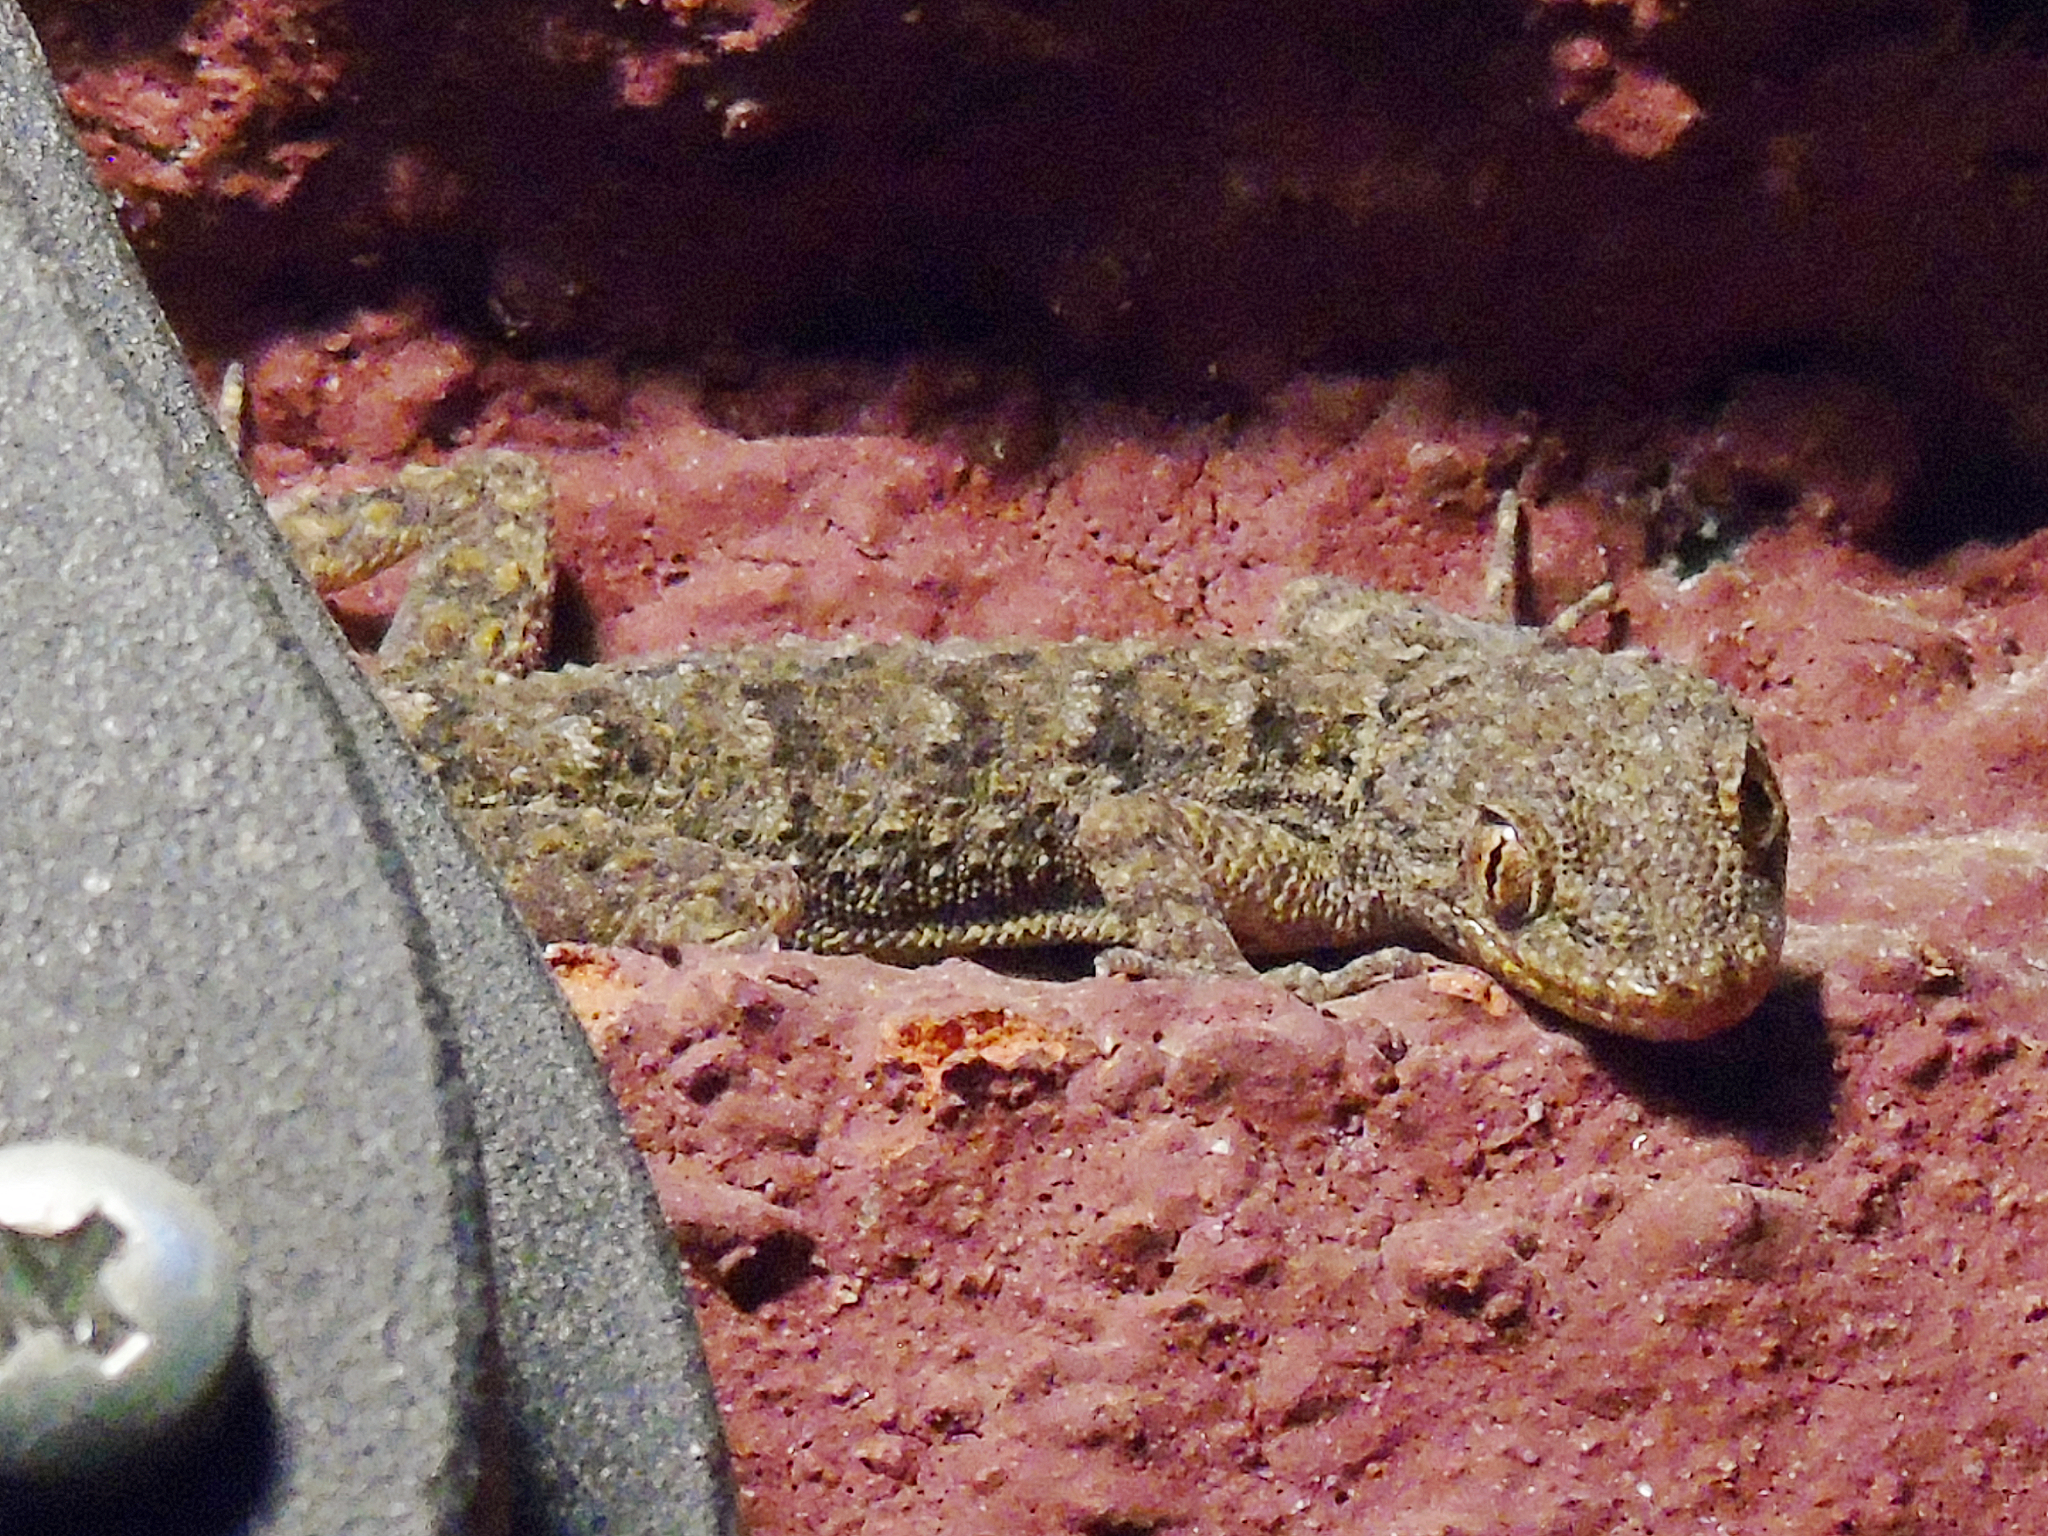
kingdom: Animalia
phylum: Chordata
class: Squamata
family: Gekkonidae
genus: Mediodactylus
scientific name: Mediodactylus kotschyi
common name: Kotschy's gecko
